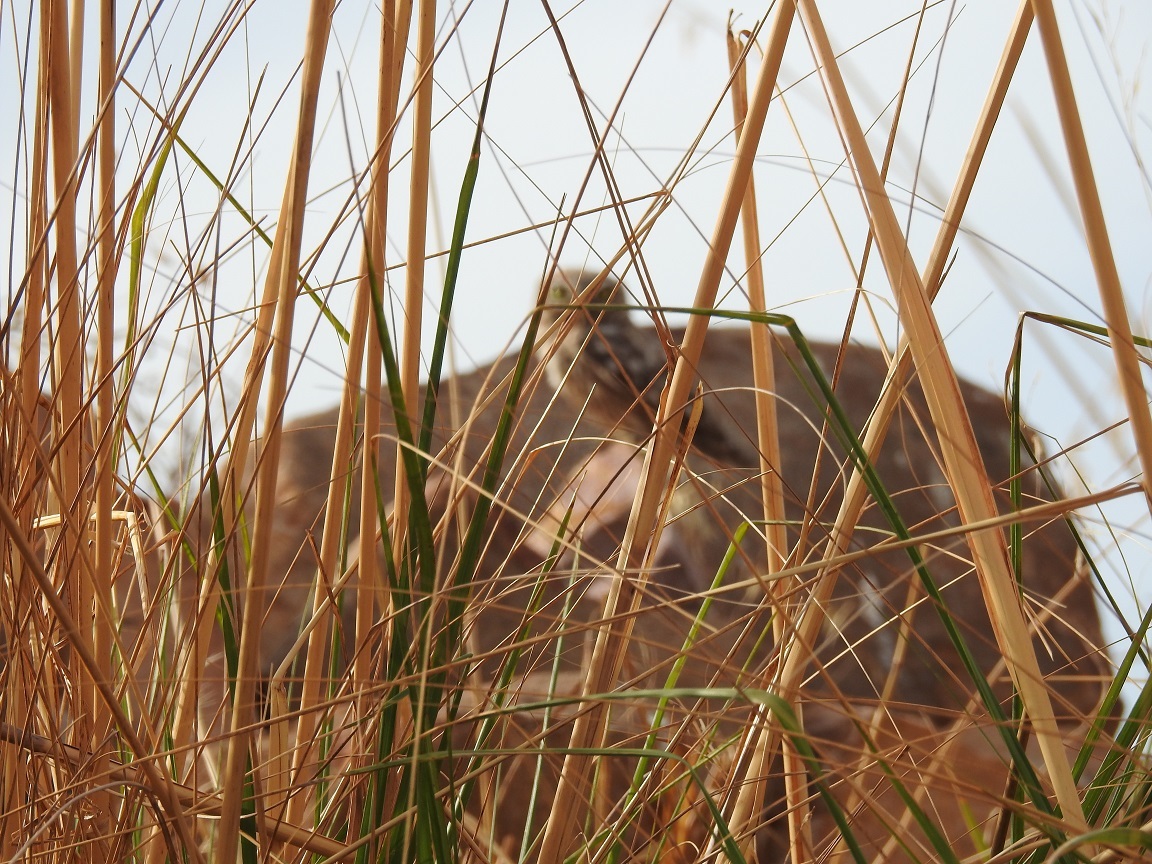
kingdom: Animalia
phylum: Chordata
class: Aves
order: Strigiformes
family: Strigidae
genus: Athene
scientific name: Athene noctua
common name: Little owl
